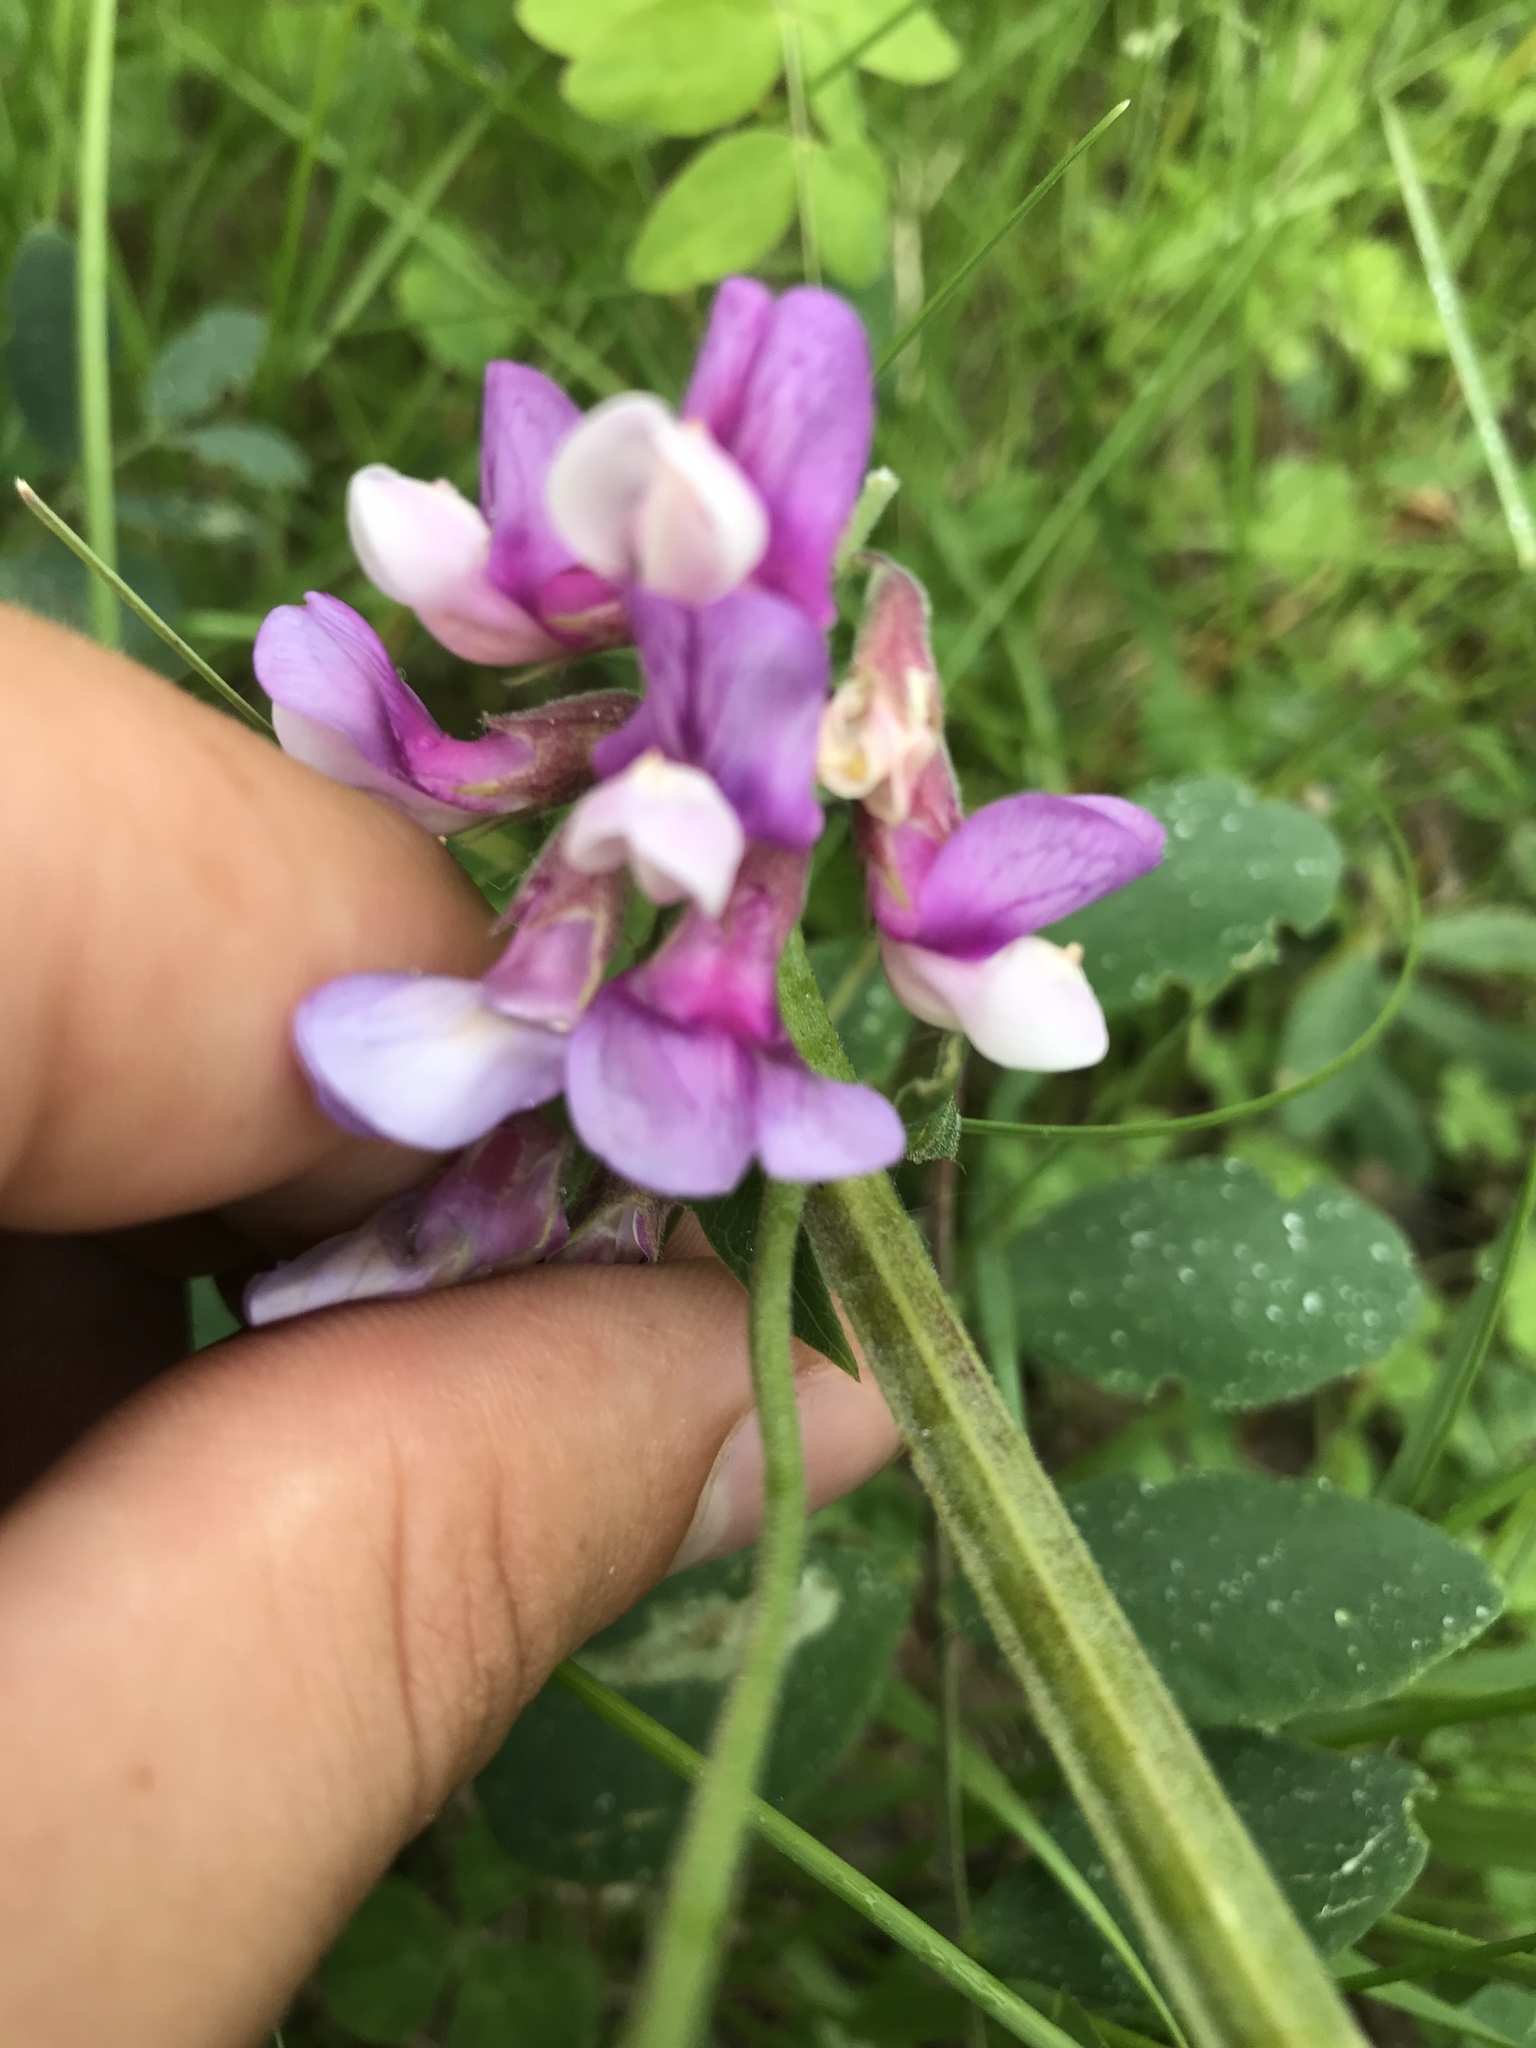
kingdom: Plantae
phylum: Tracheophyta
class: Magnoliopsida
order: Fabales
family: Fabaceae
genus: Lathyrus
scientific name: Lathyrus venosus
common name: Forest-pea
